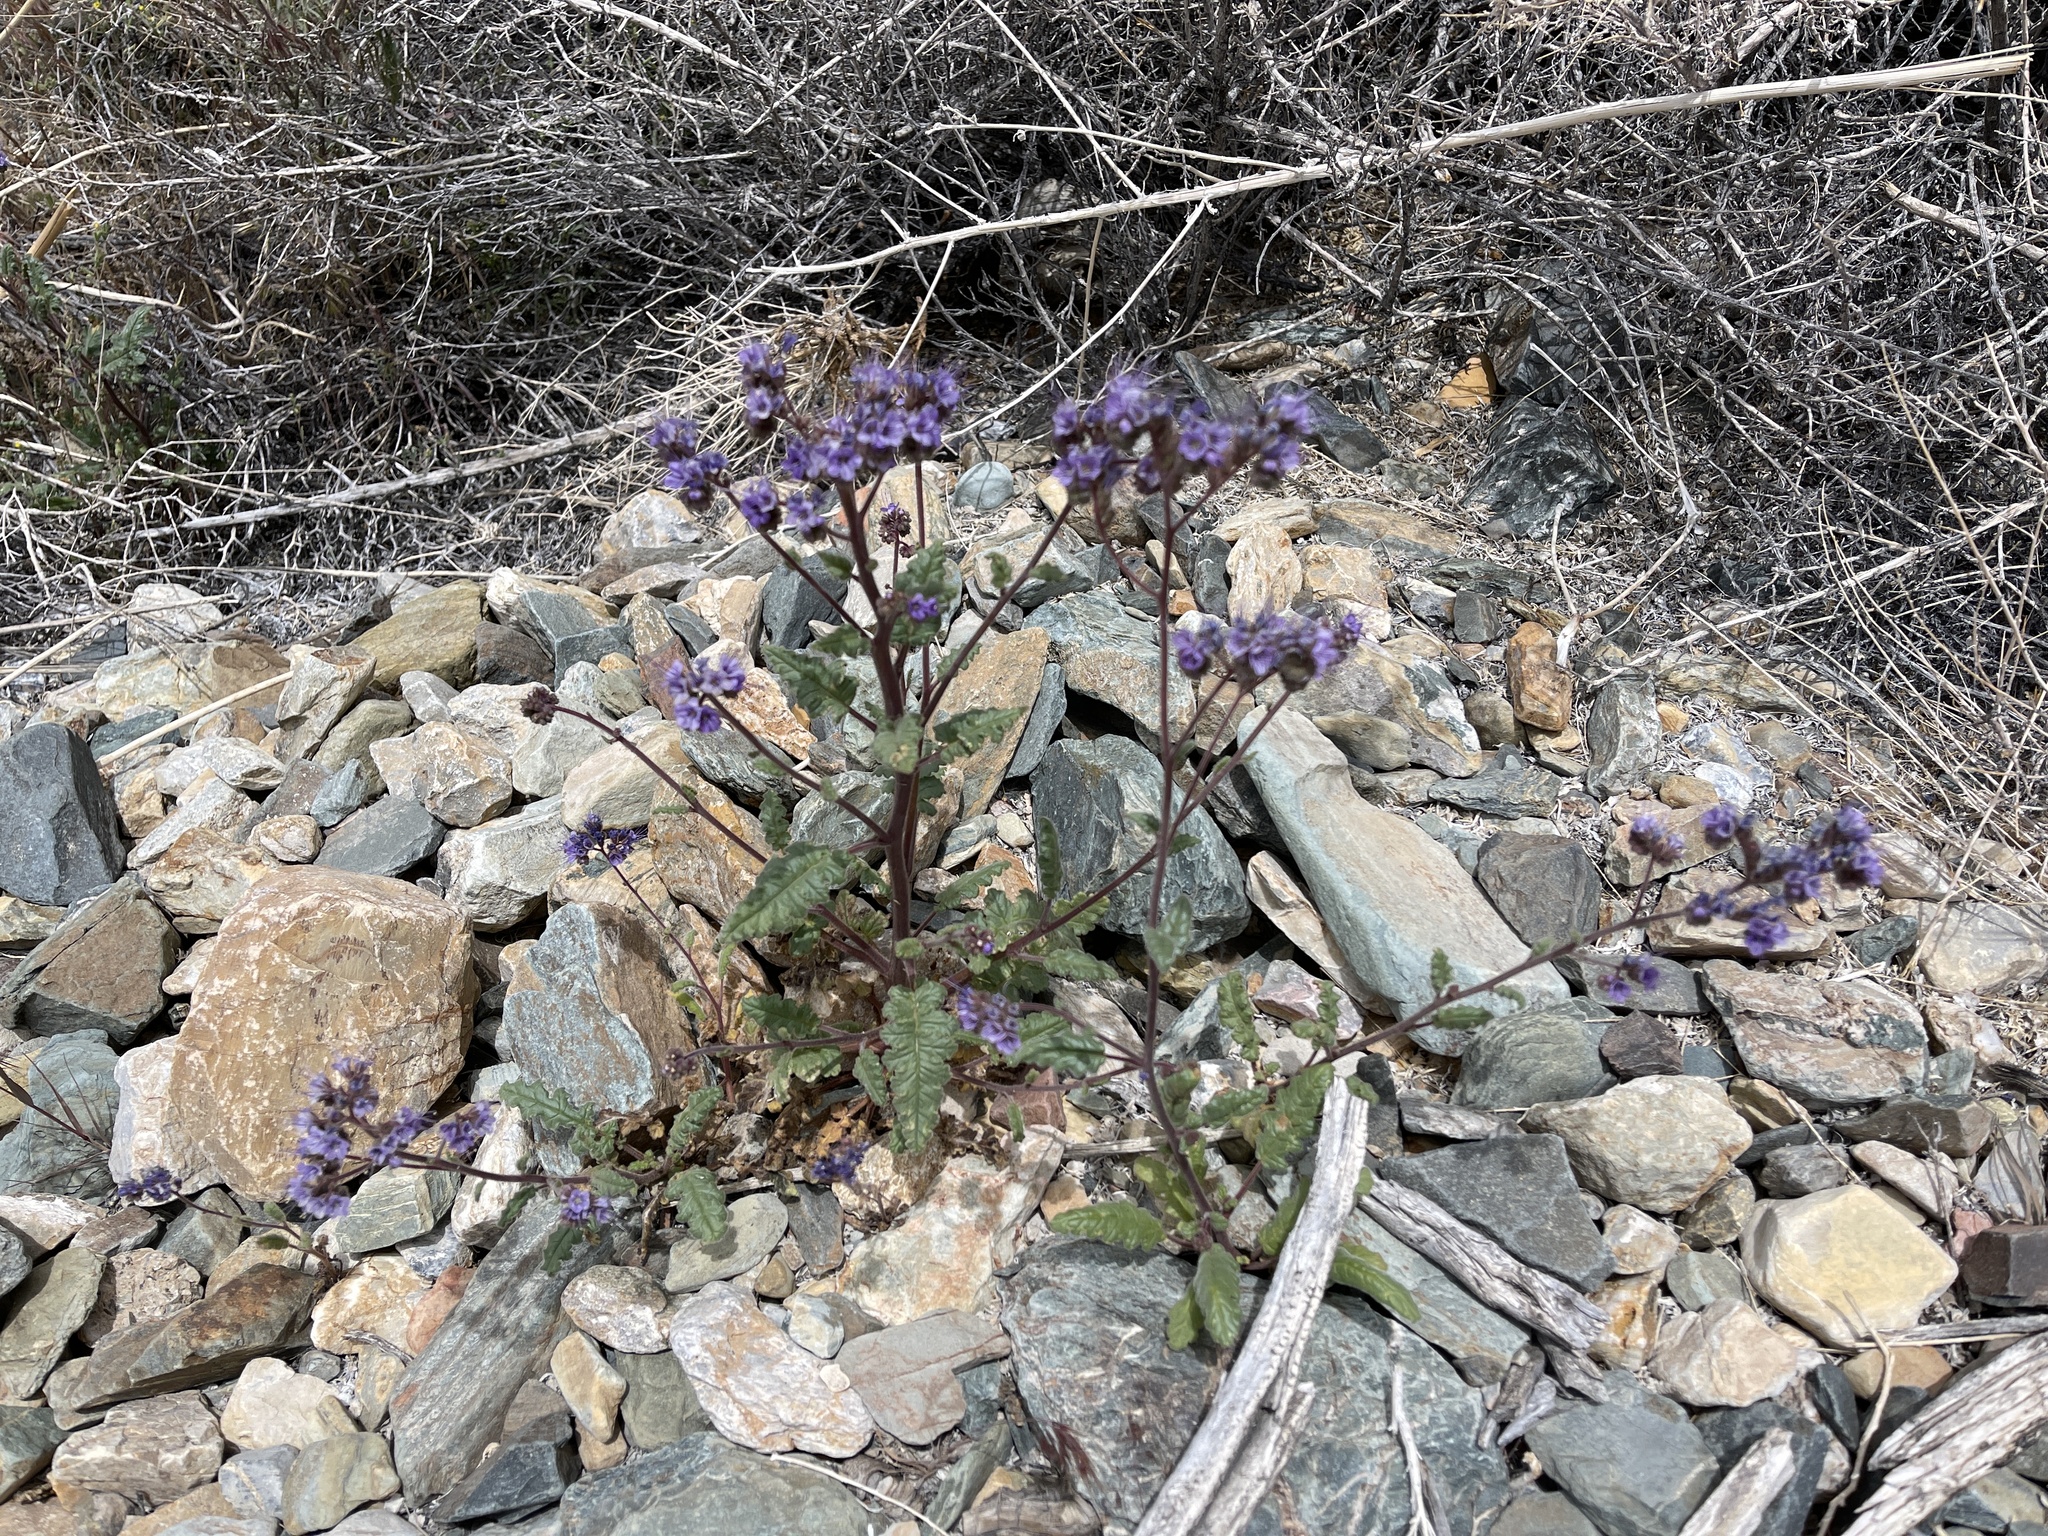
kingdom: Plantae
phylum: Tracheophyta
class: Magnoliopsida
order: Boraginales
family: Hydrophyllaceae
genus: Phacelia
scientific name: Phacelia crenulata
